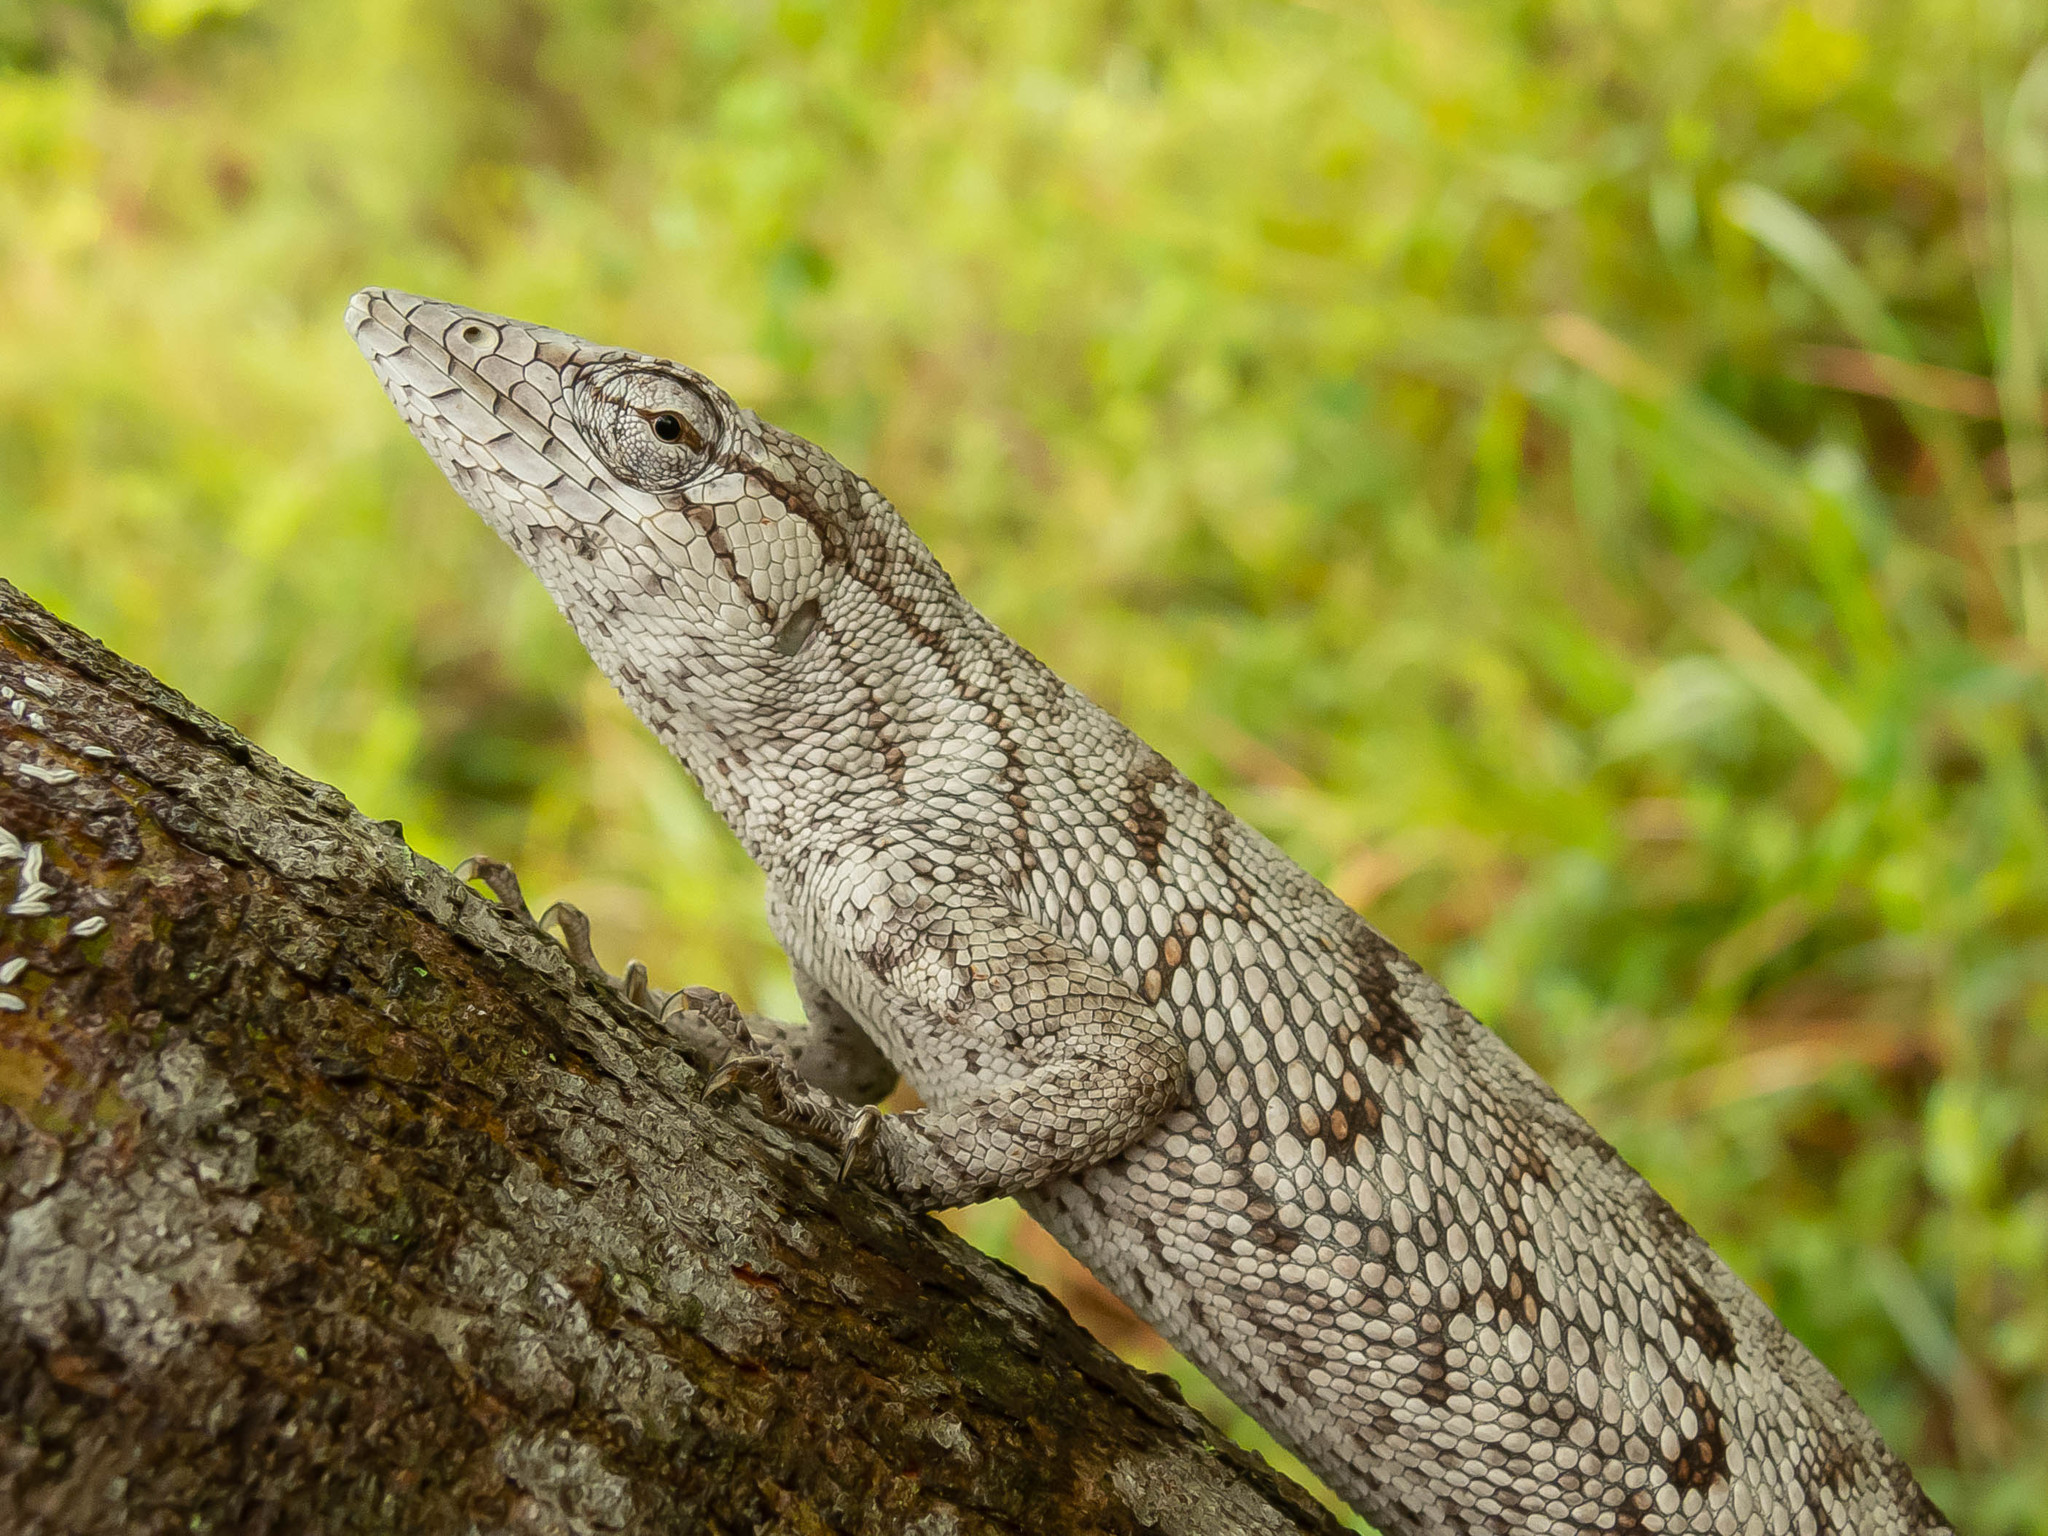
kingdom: Animalia
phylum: Chordata
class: Squamata
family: Polychrotidae
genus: Polychrus
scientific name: Polychrus acutirostris
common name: Brazilian bush anole
